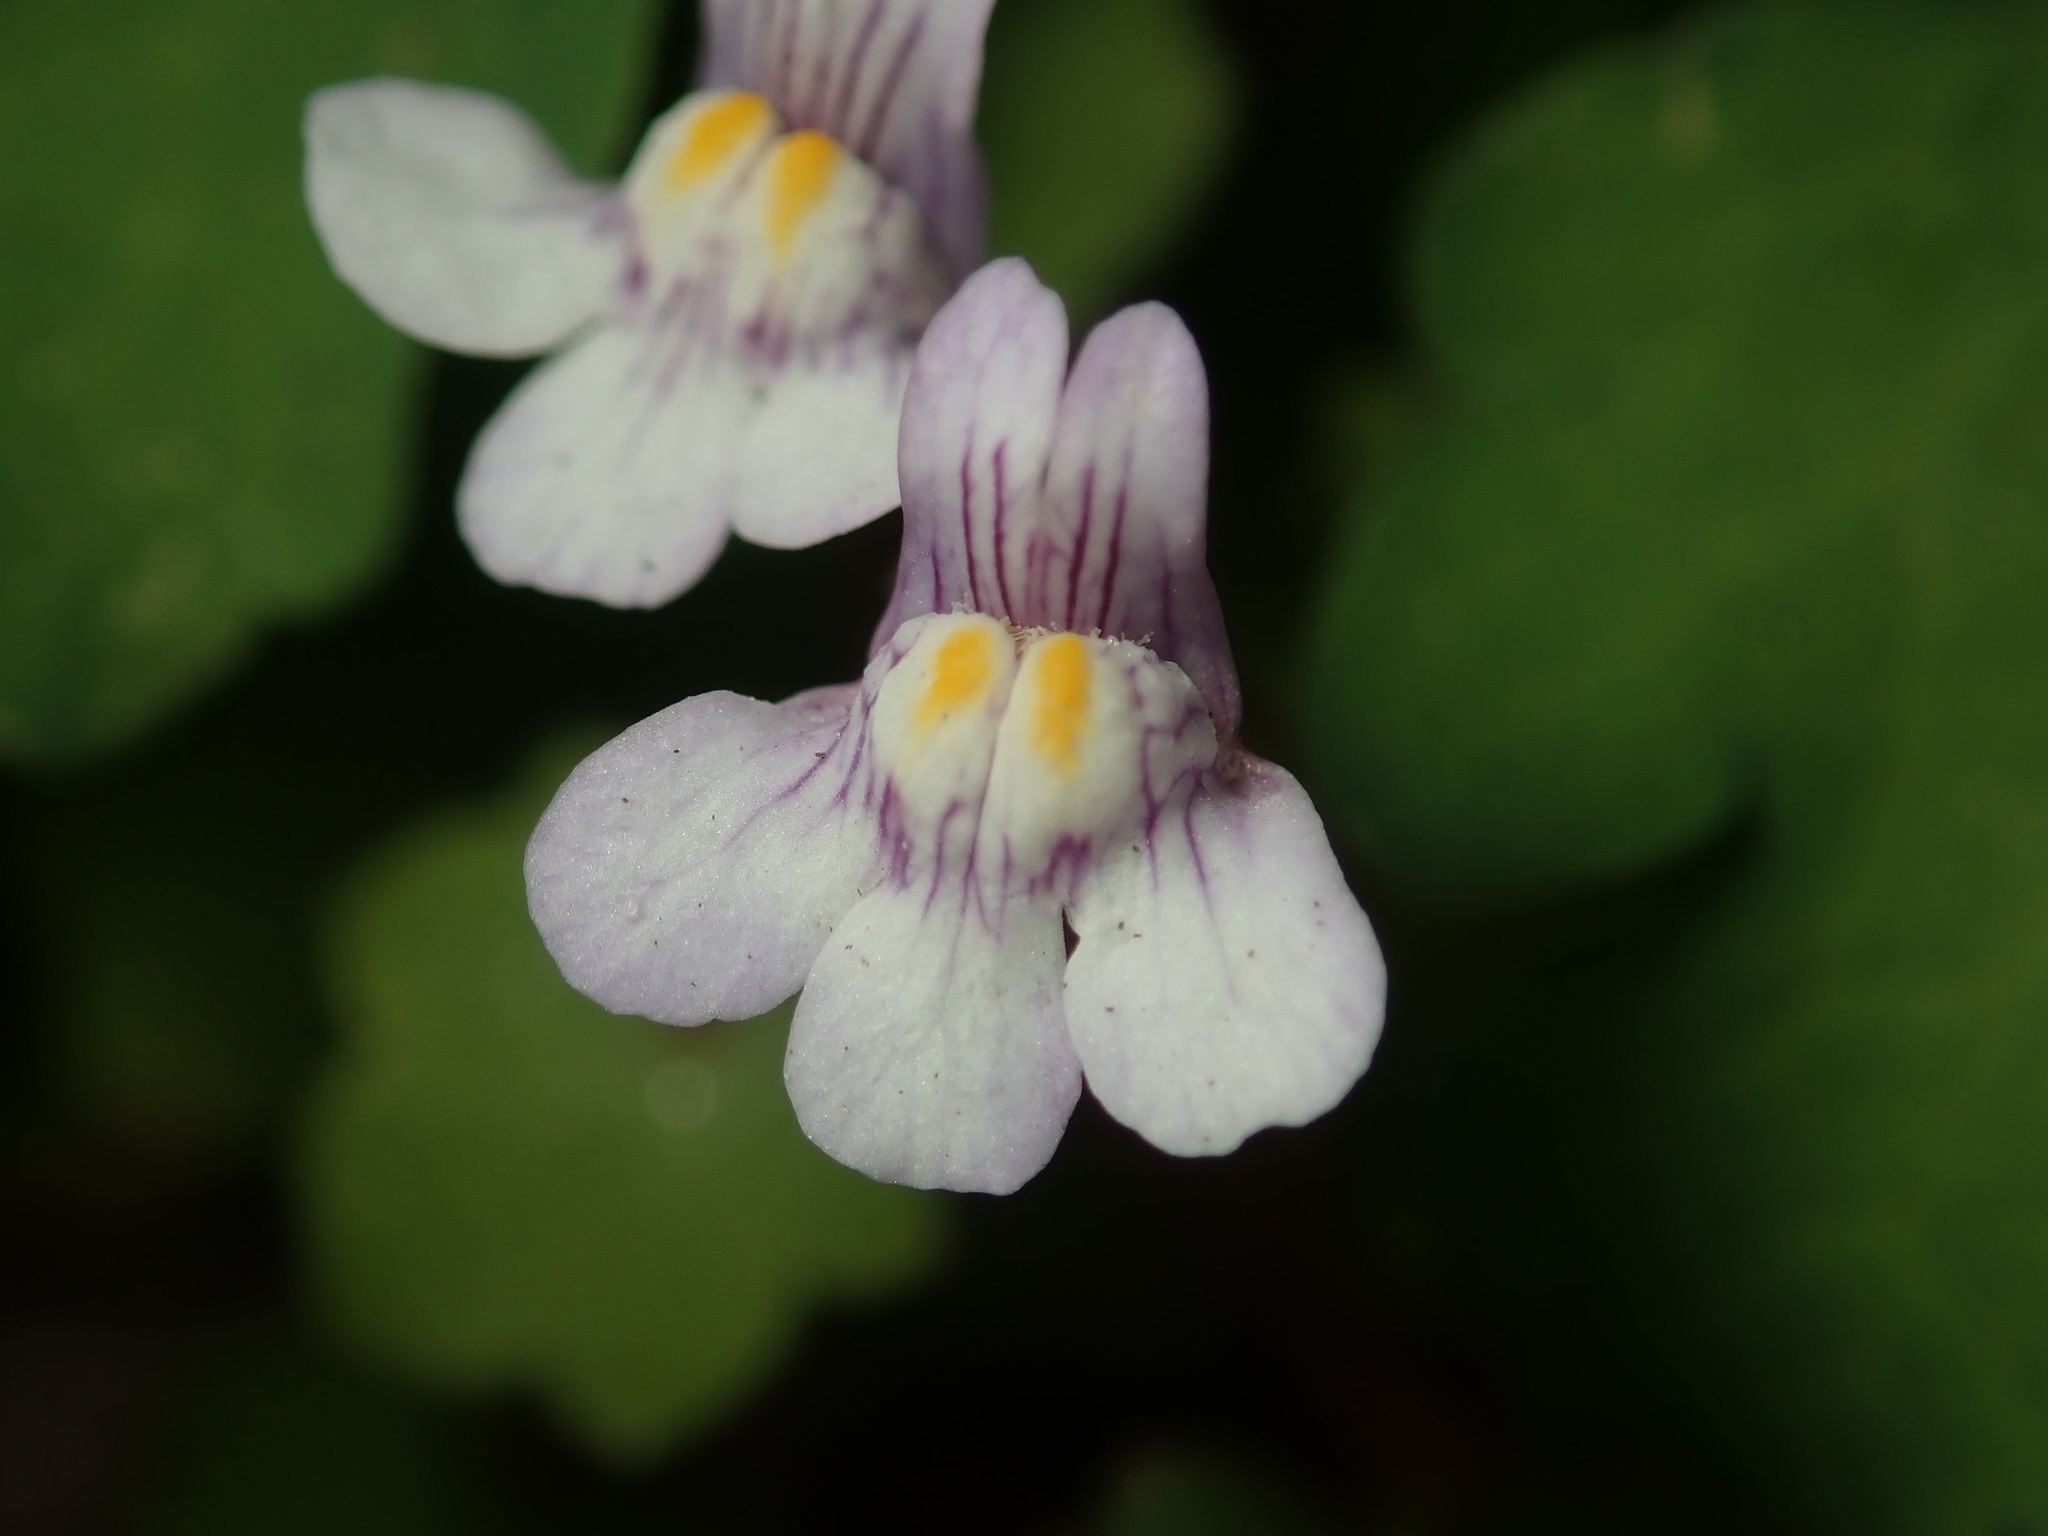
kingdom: Plantae
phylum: Tracheophyta
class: Magnoliopsida
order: Lamiales
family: Plantaginaceae
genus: Cymbalaria
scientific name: Cymbalaria muralis
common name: Ivy-leaved toadflax
